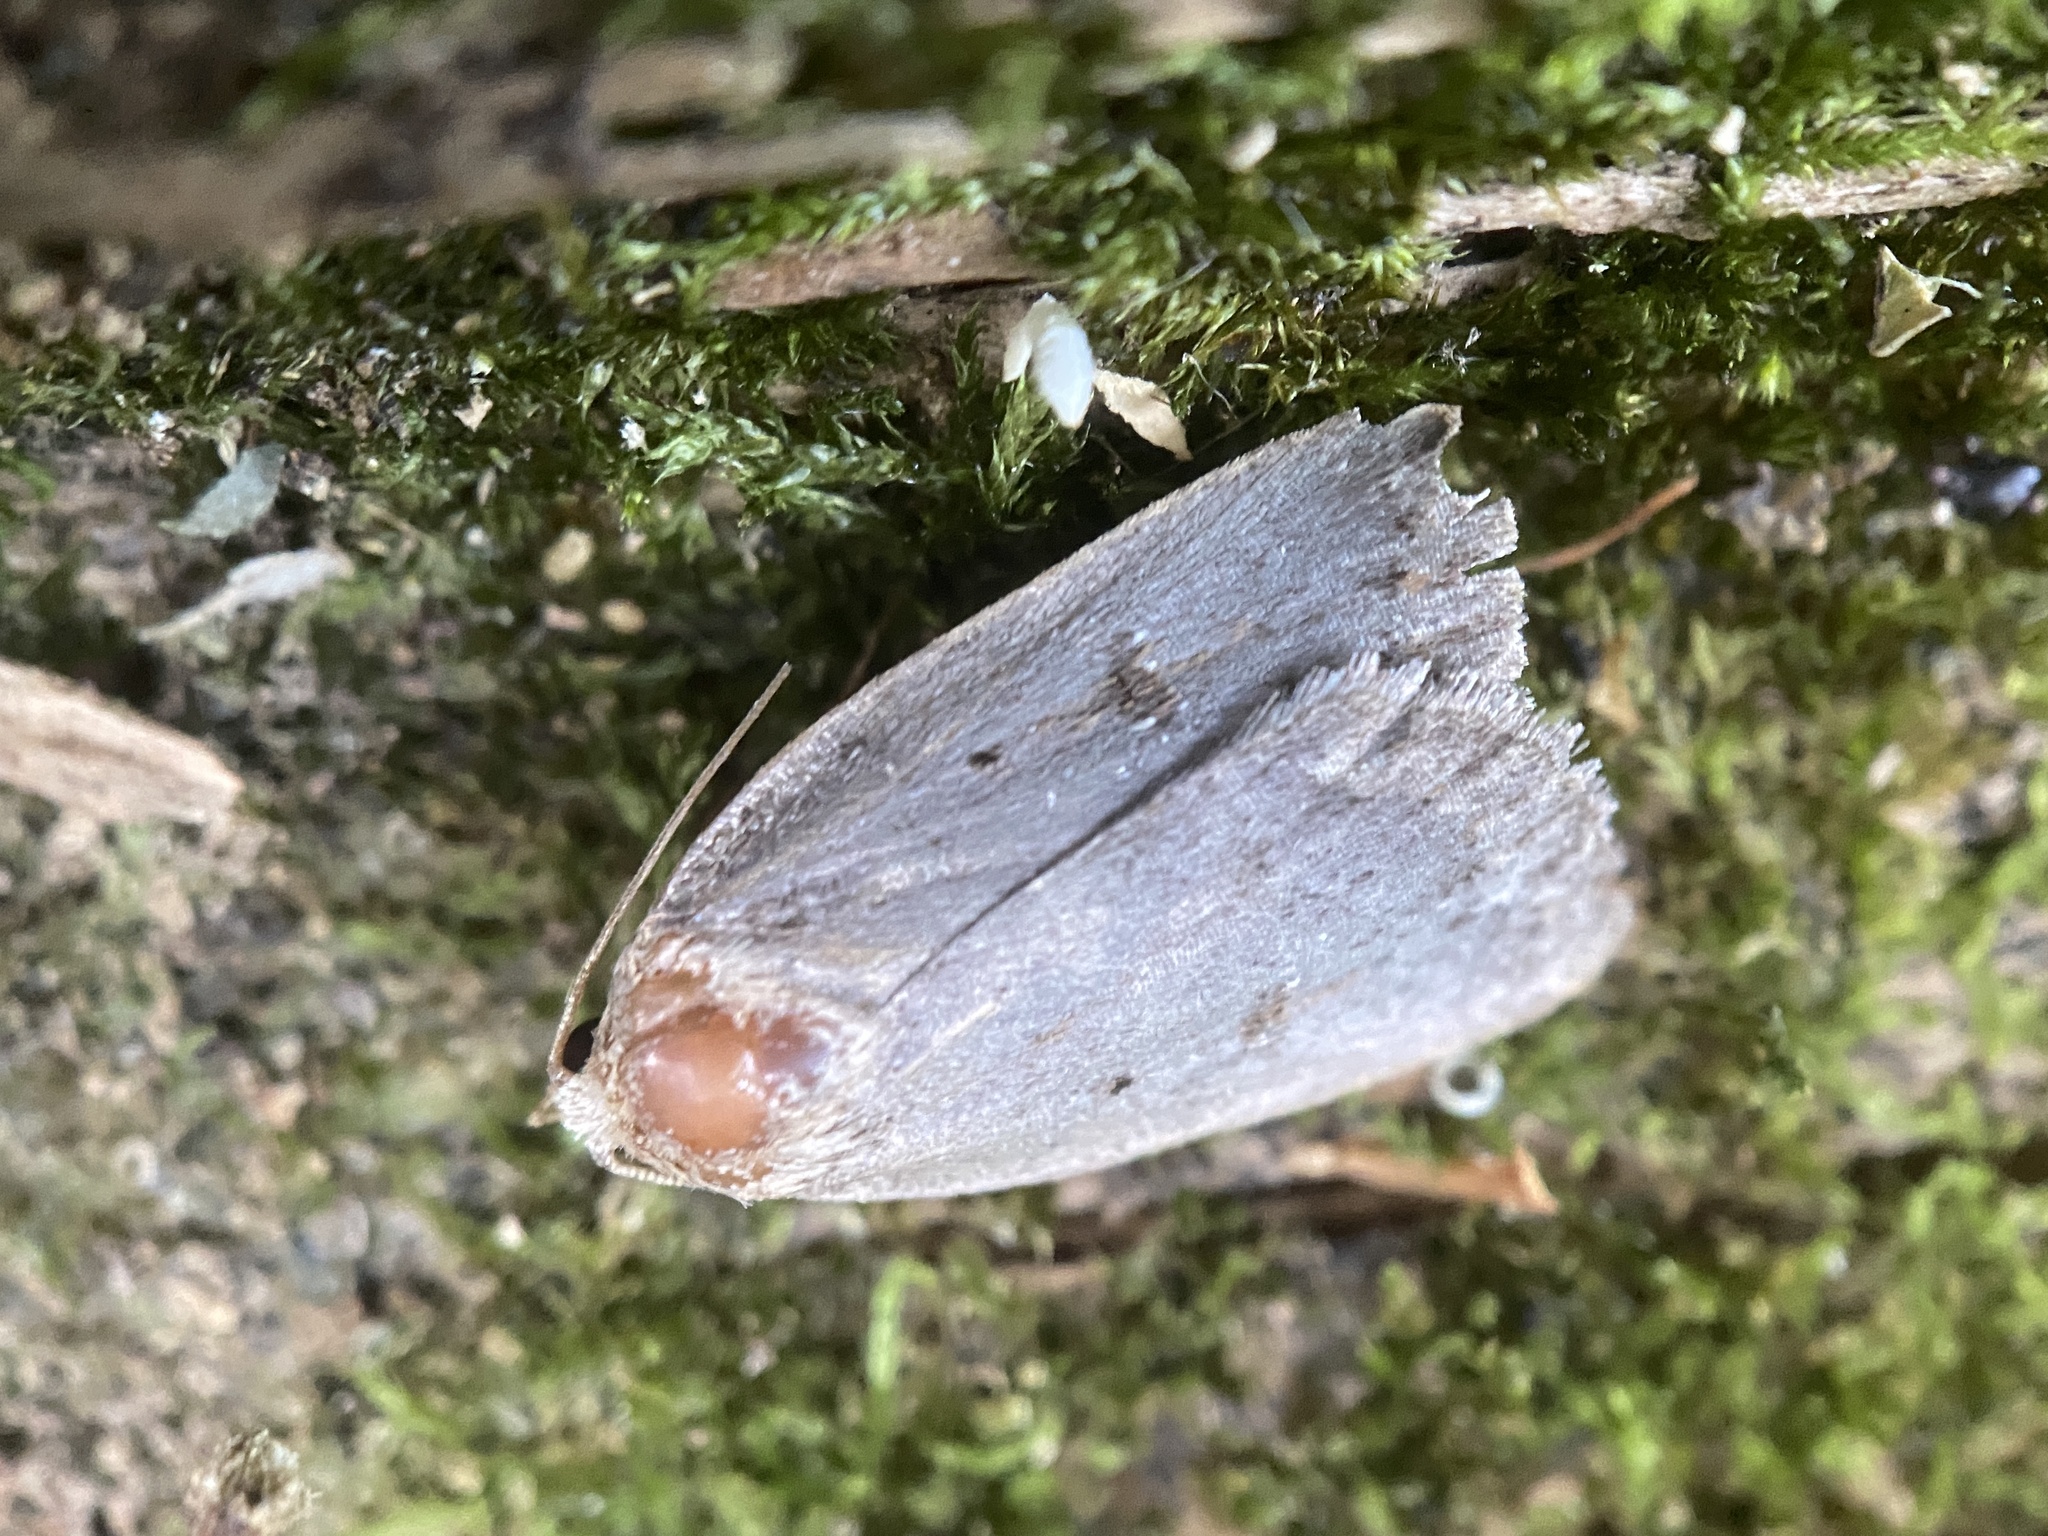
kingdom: Animalia
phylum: Arthropoda
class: Insecta
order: Lepidoptera
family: Noctuidae
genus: Amphipyra
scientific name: Amphipyra tragopoginis
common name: Mouse moth
